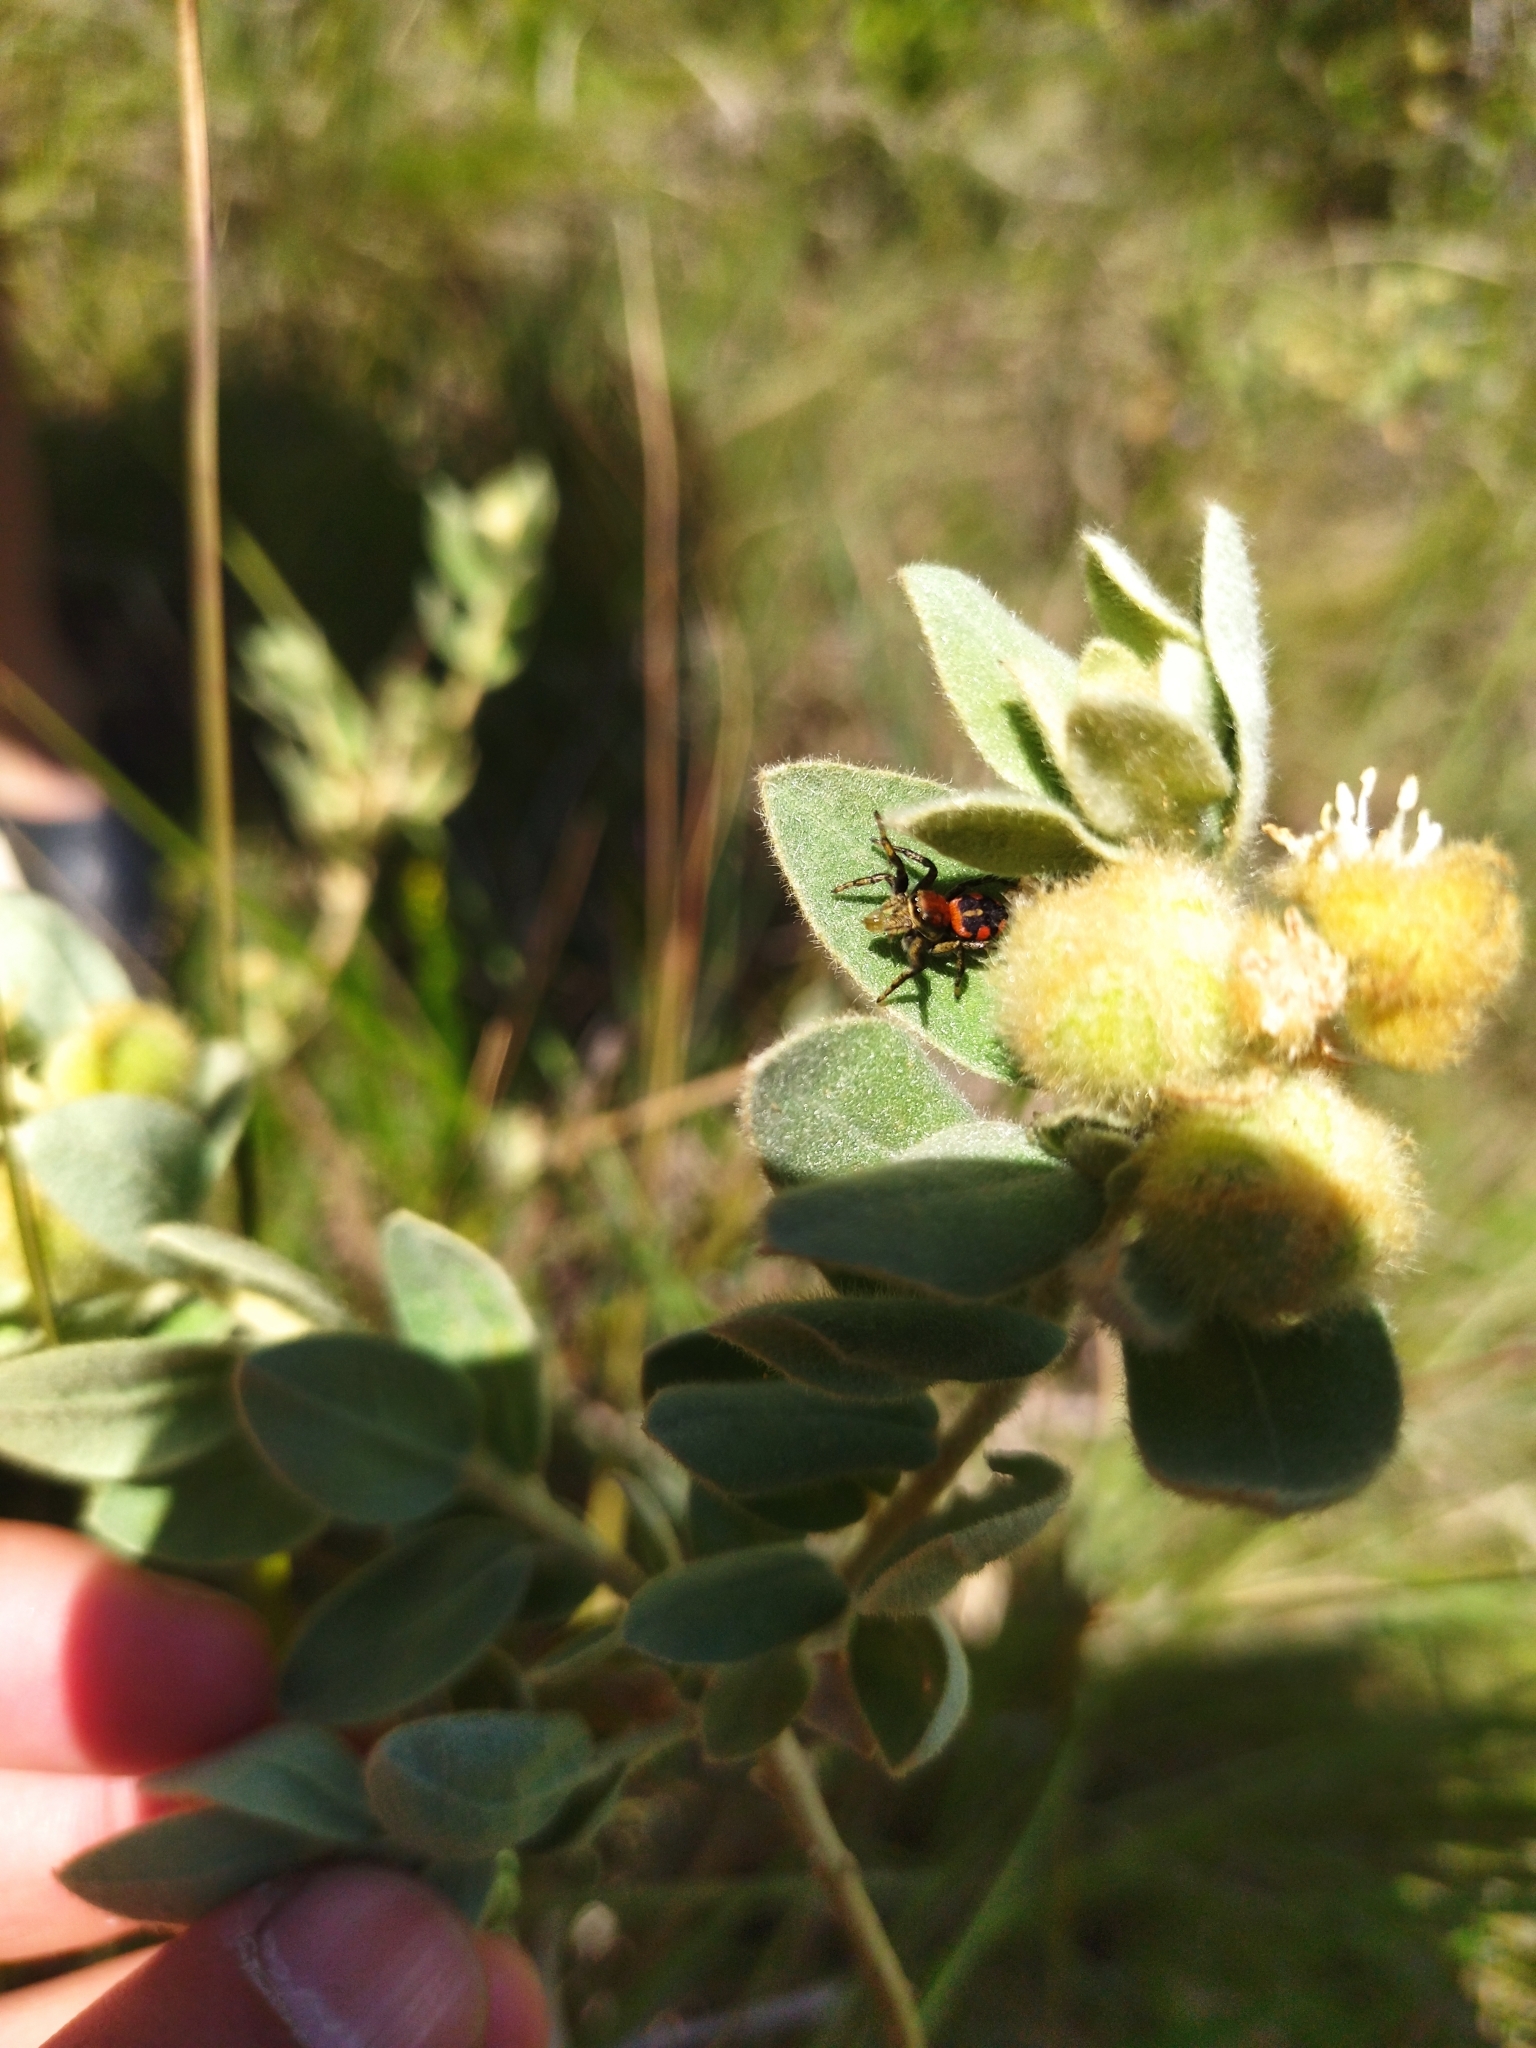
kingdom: Animalia
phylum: Arthropoda
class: Arachnida
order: Araneae
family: Salticidae
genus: Phiale
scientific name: Phiale roburifoliata
